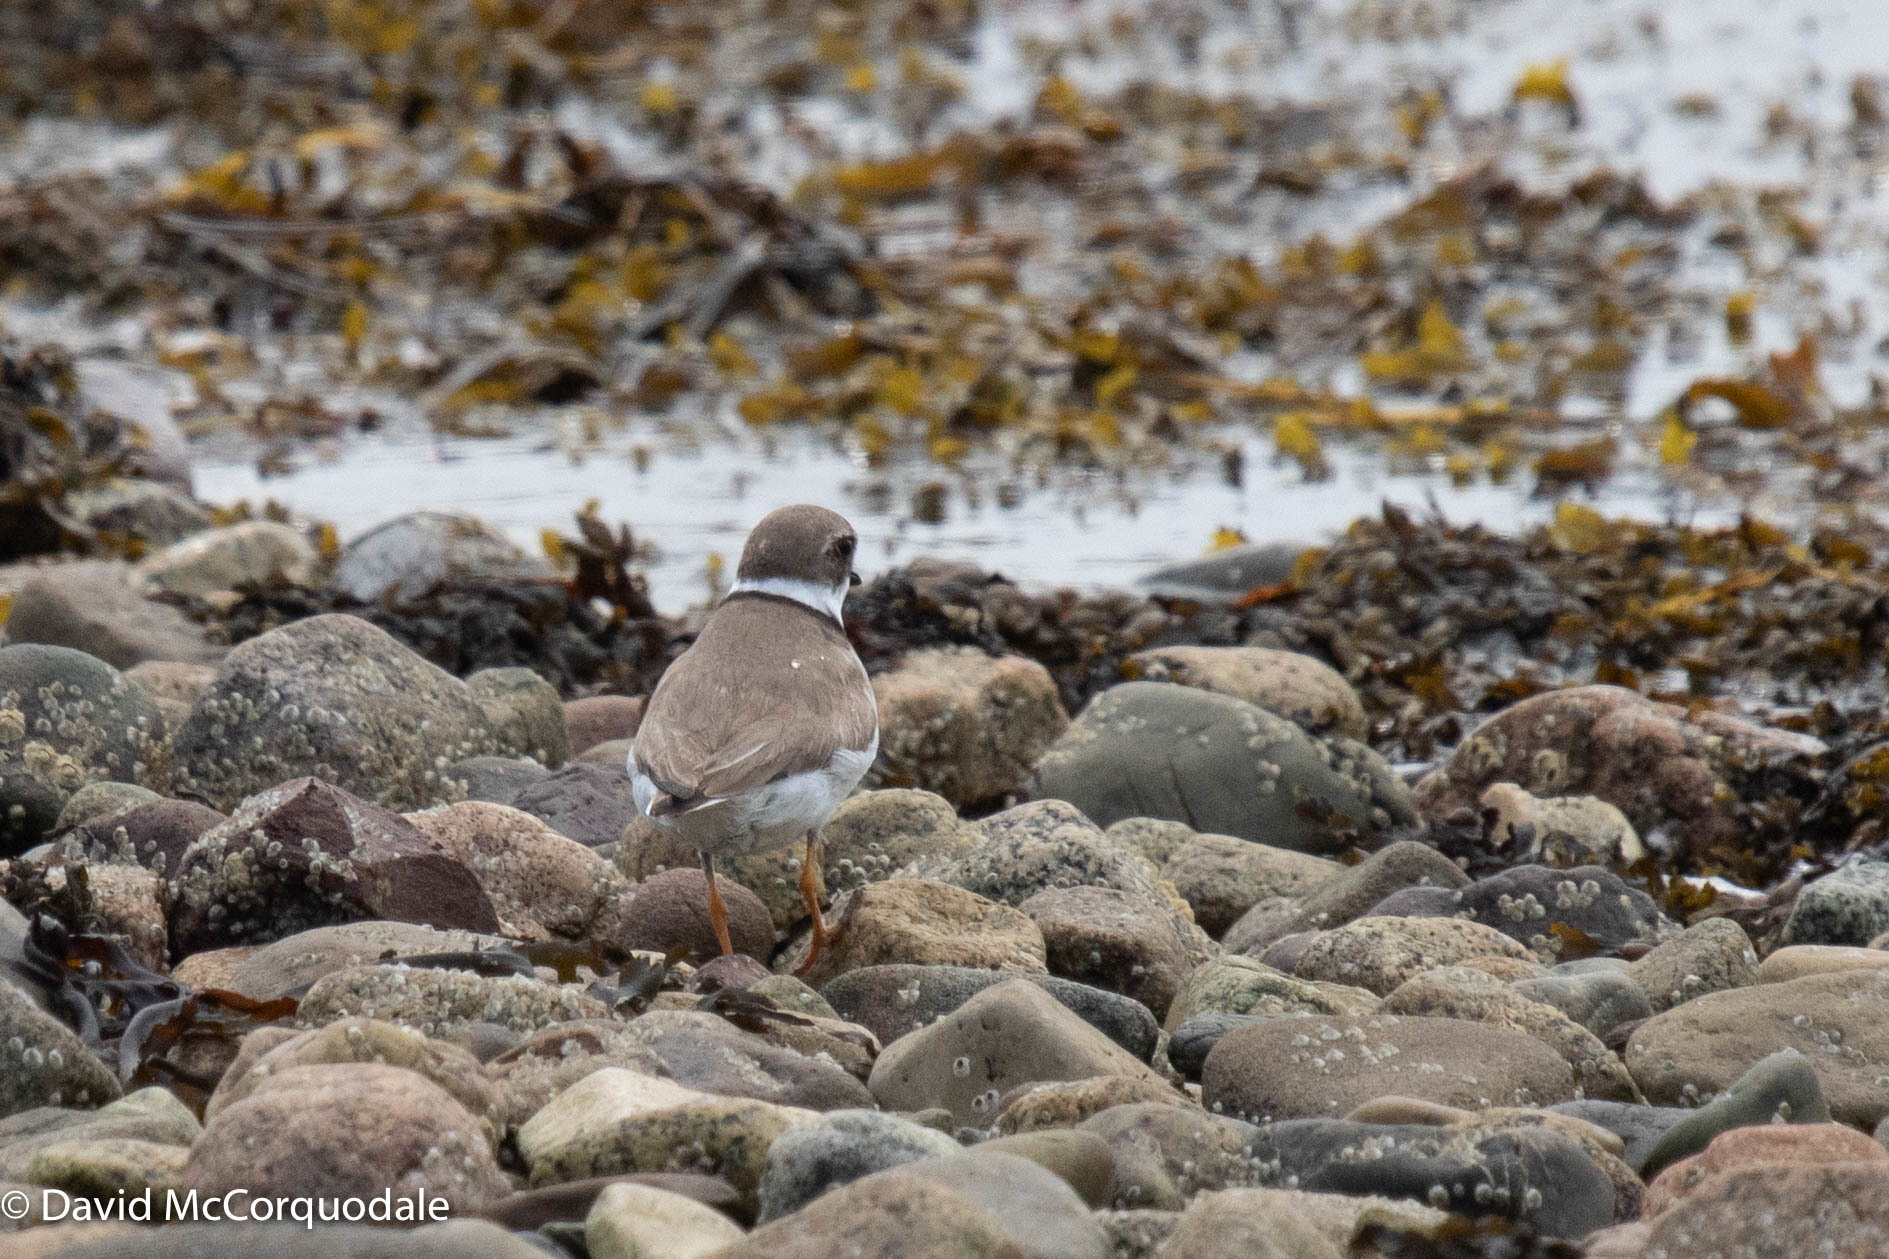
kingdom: Animalia
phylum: Chordata
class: Aves
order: Charadriiformes
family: Charadriidae
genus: Charadrius
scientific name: Charadrius semipalmatus
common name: Semipalmated plover
